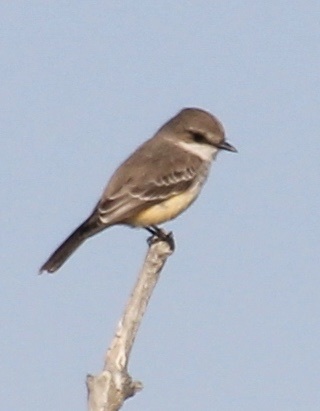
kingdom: Animalia
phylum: Chordata
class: Aves
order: Passeriformes
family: Tyrannidae
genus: Pyrocephalus
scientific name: Pyrocephalus rubinus
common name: Vermilion flycatcher
